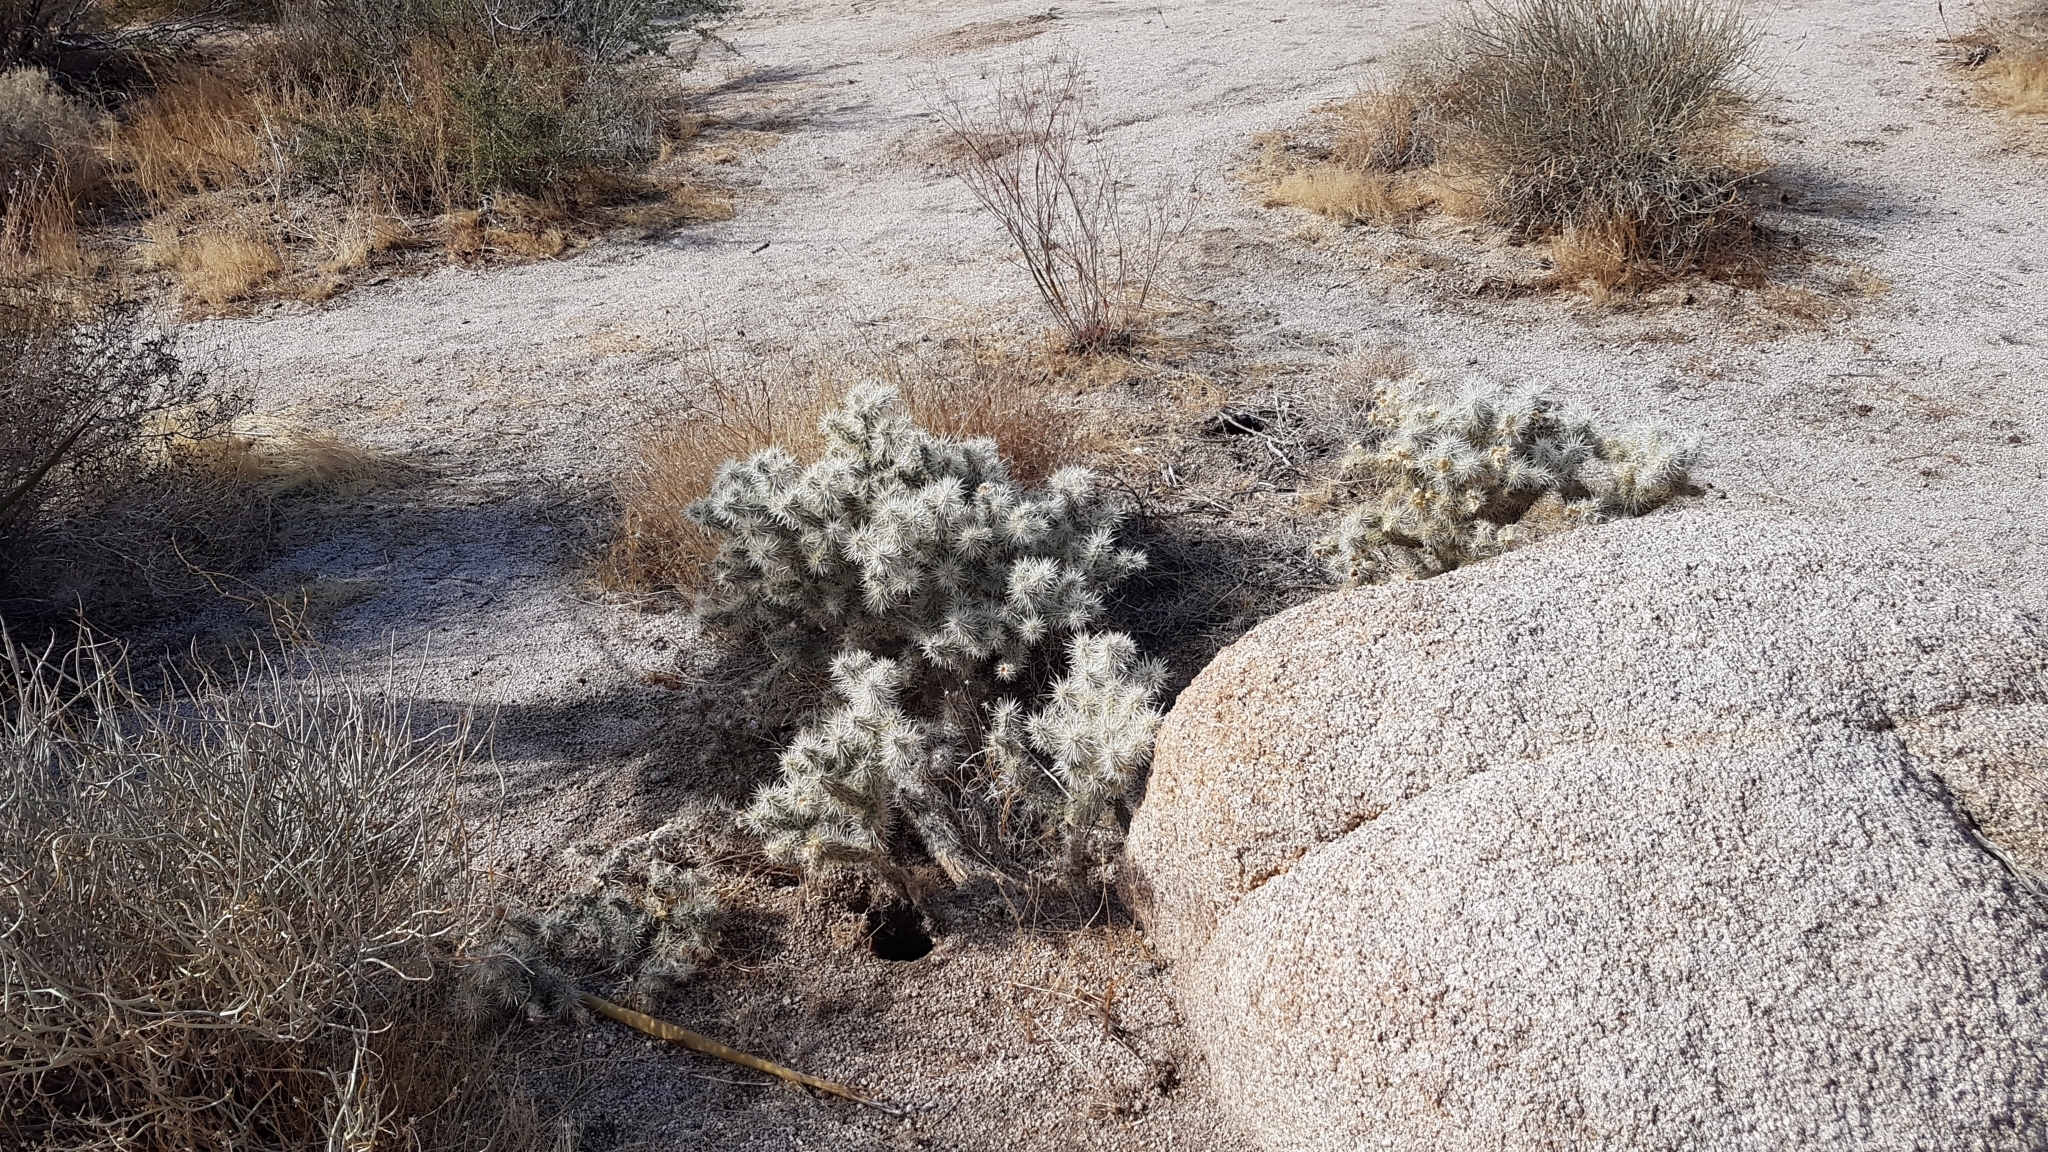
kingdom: Plantae
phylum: Tracheophyta
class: Magnoliopsida
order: Caryophyllales
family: Cactaceae
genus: Cylindropuntia
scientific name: Cylindropuntia echinocarpa
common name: Ground cholla
